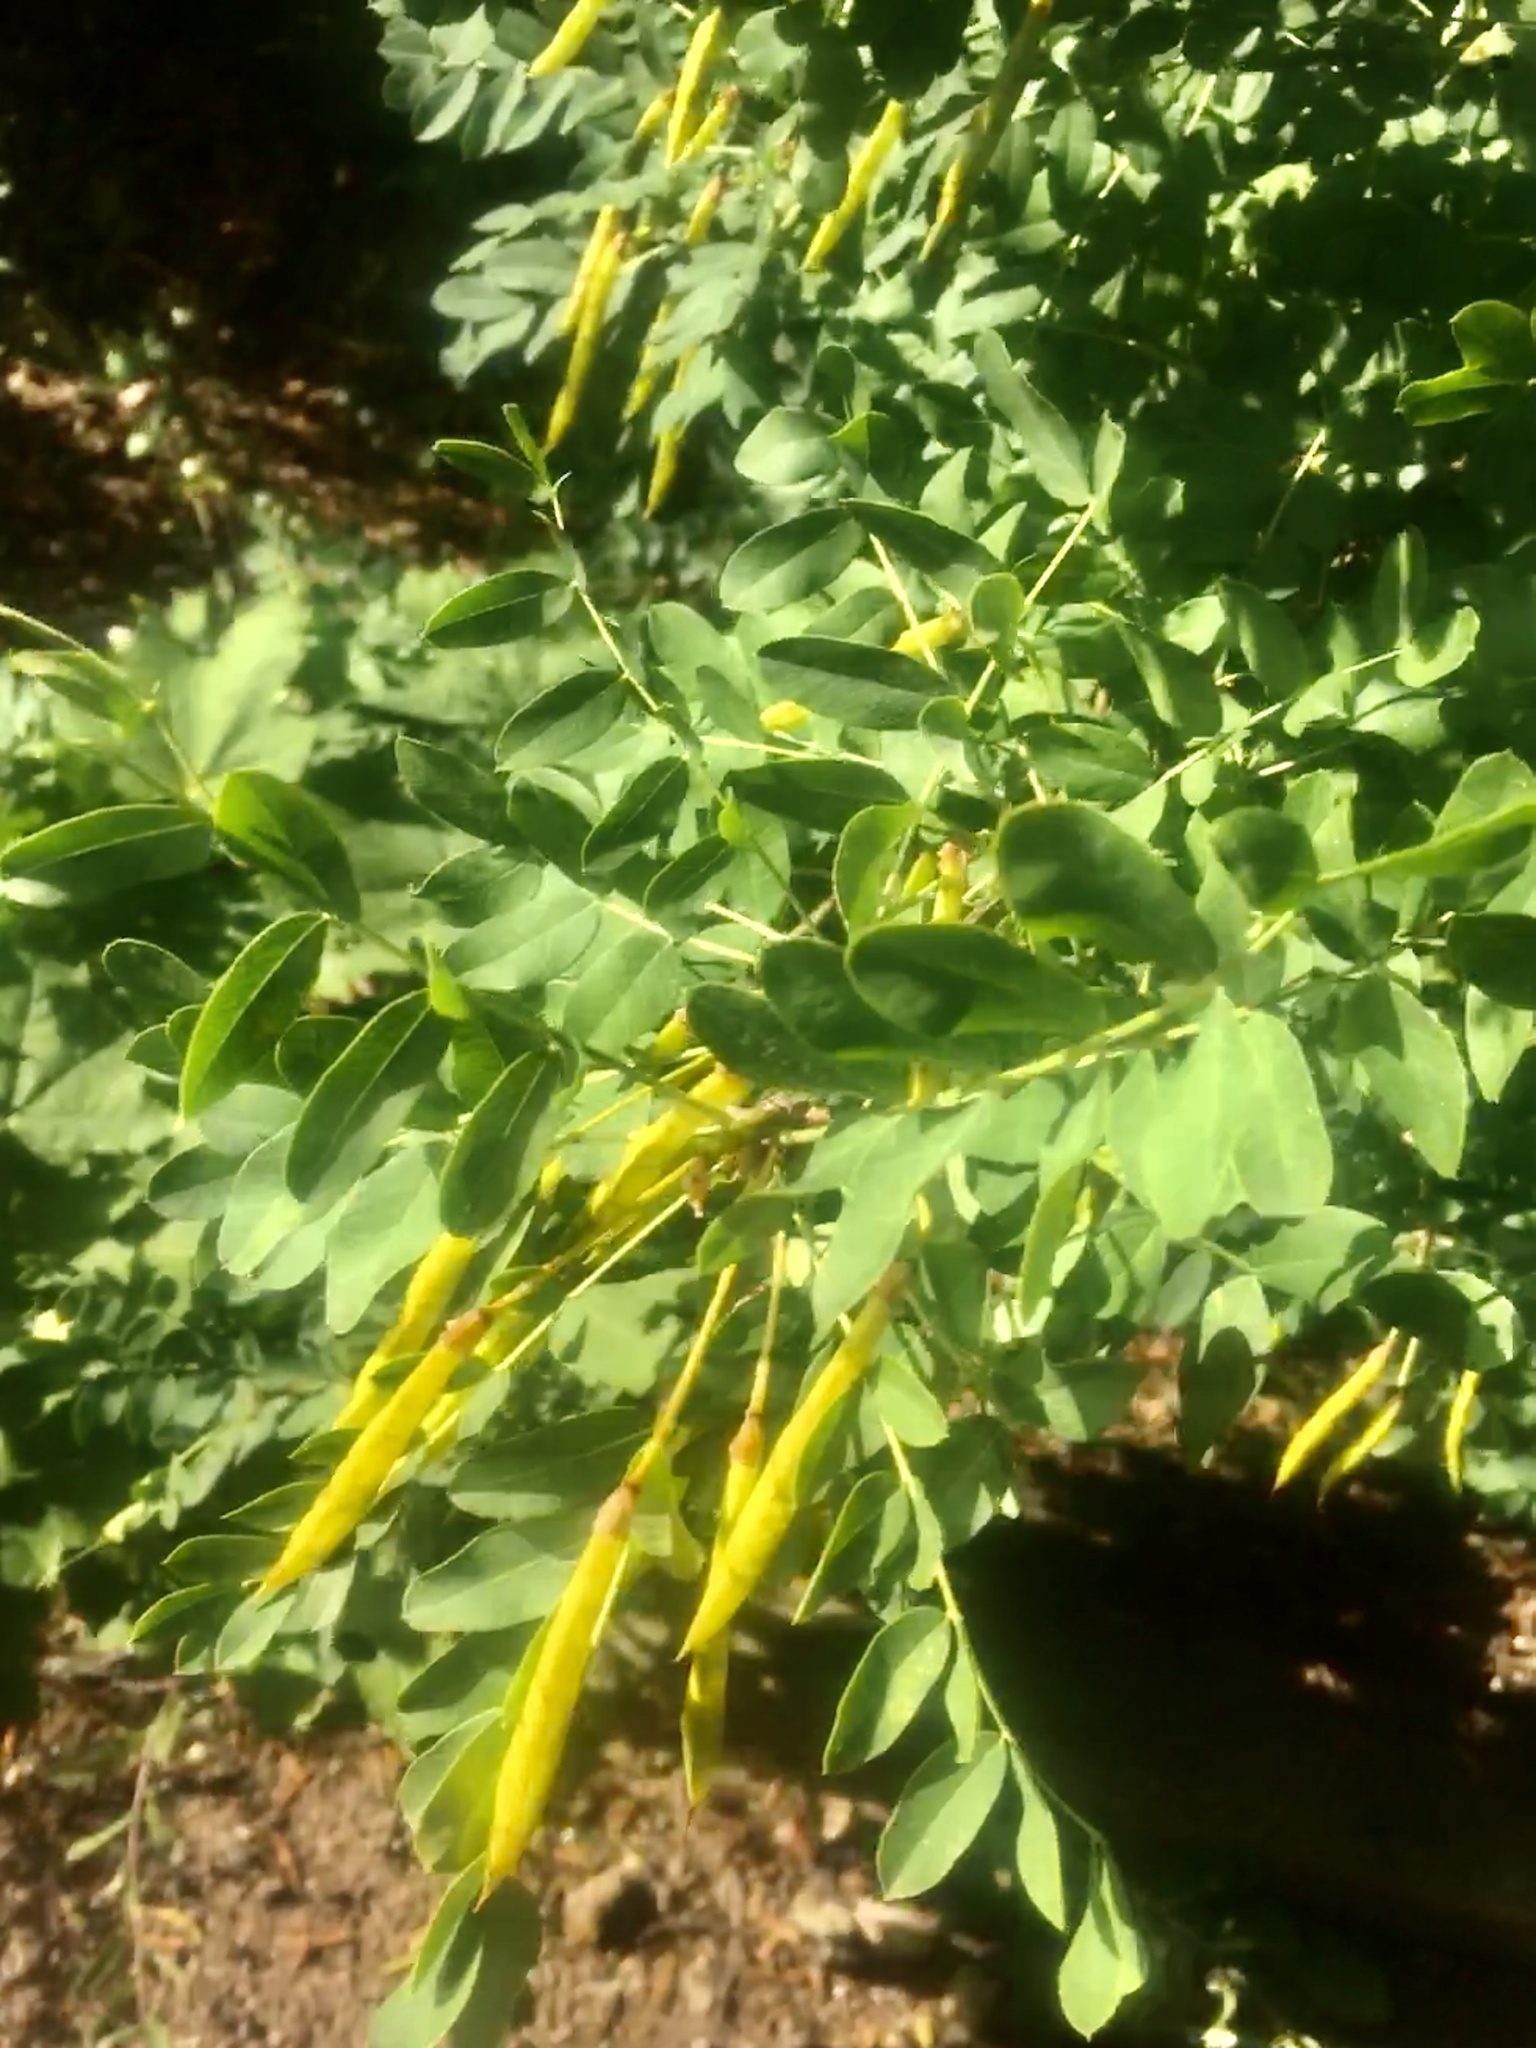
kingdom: Plantae
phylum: Tracheophyta
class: Magnoliopsida
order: Fabales
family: Fabaceae
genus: Caragana
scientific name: Caragana arborescens
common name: Siberian peashrub
